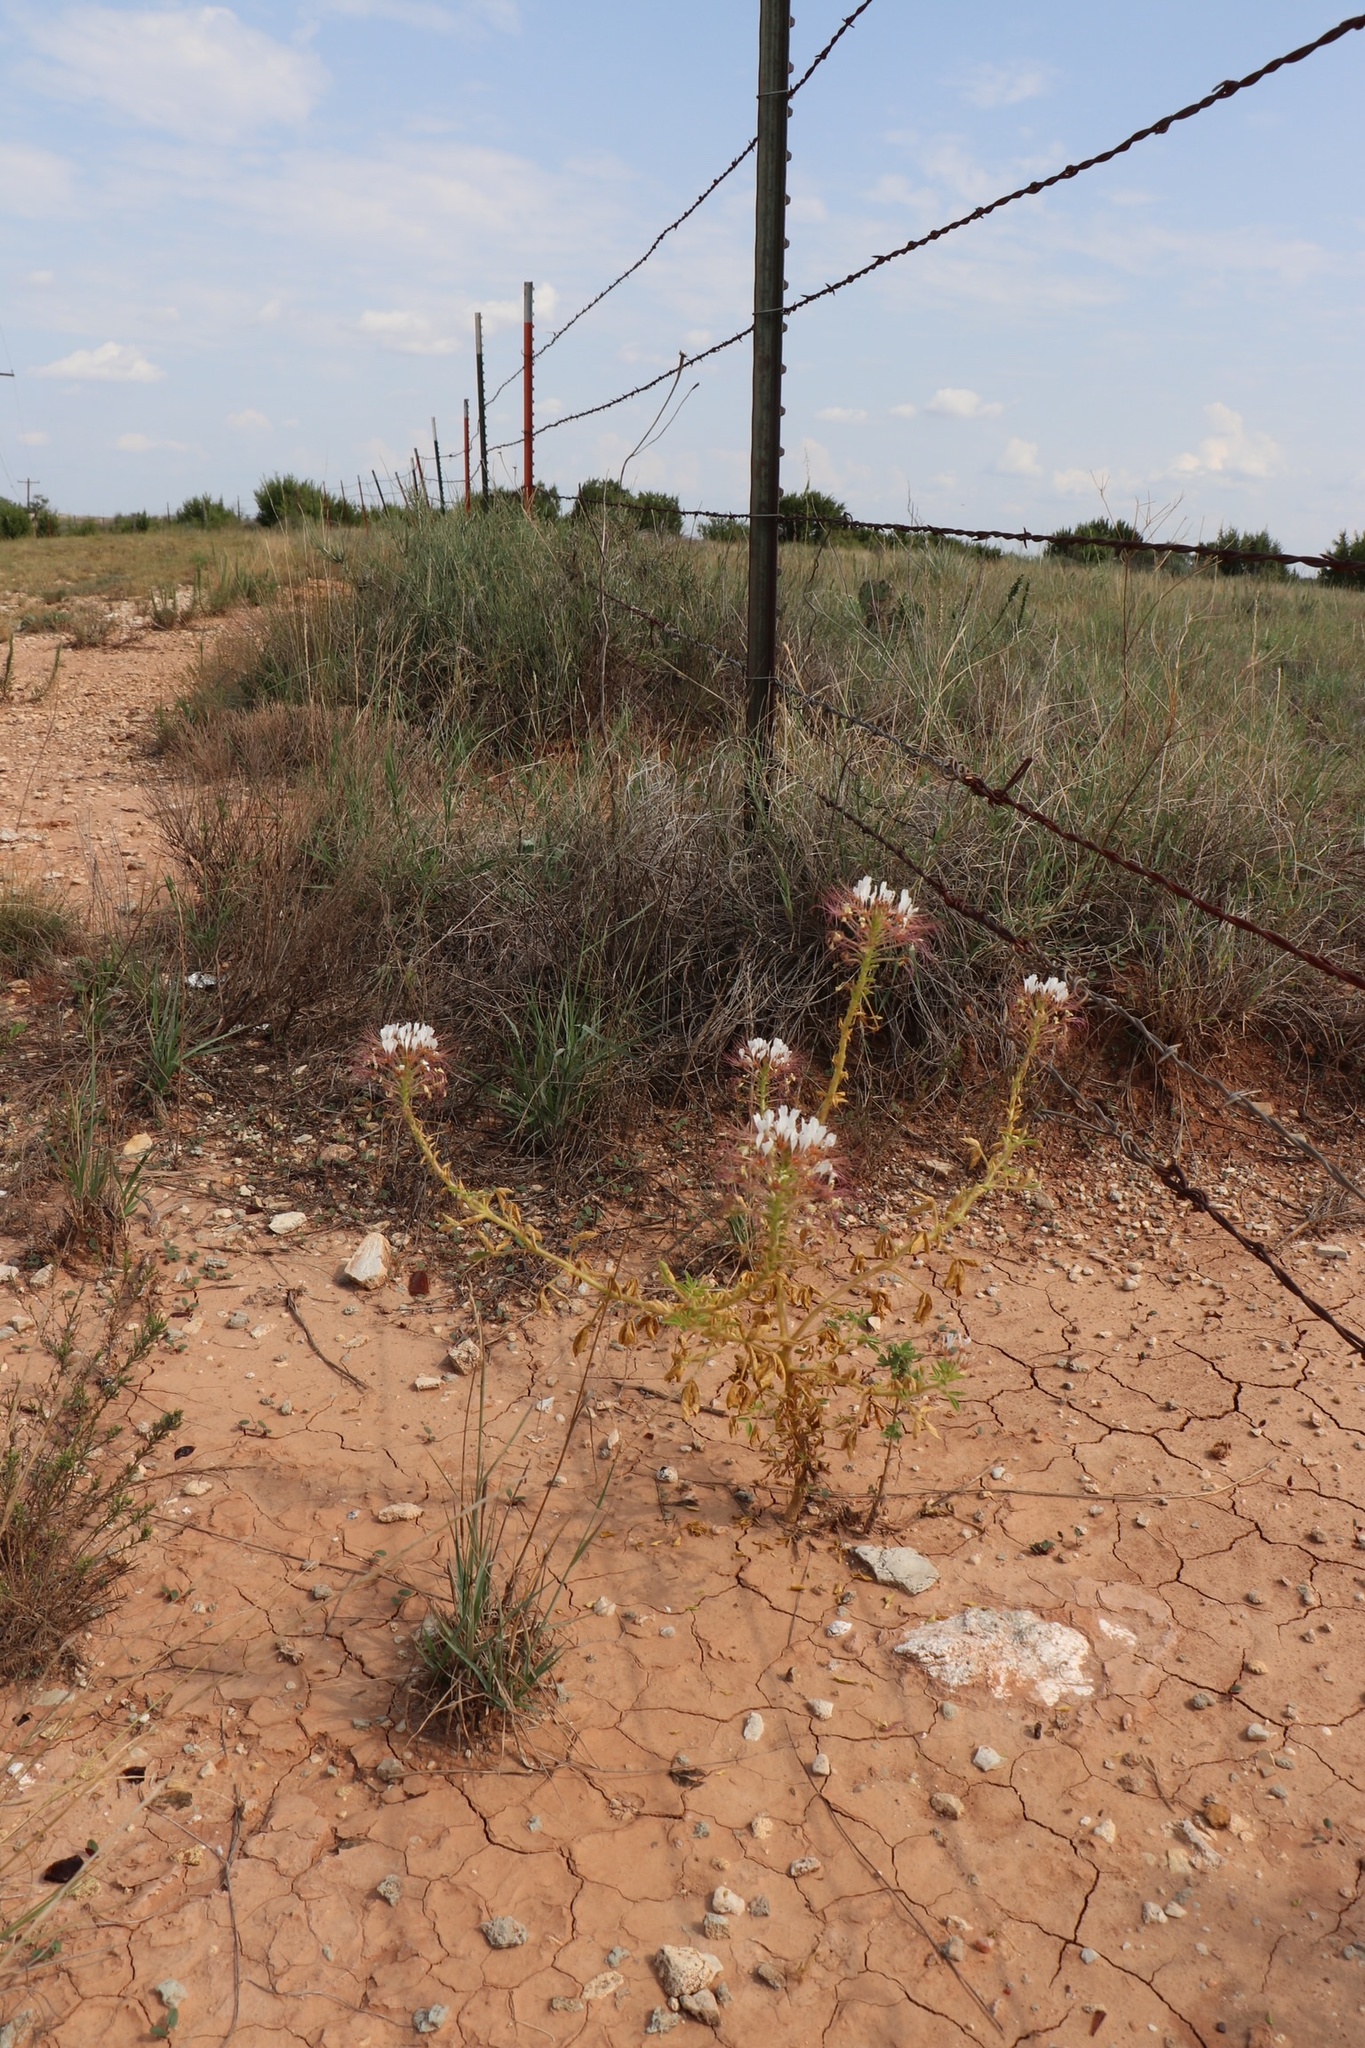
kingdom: Plantae
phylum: Tracheophyta
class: Magnoliopsida
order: Brassicales
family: Cleomaceae
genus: Polanisia
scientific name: Polanisia dodecandra
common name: Clammyweed
